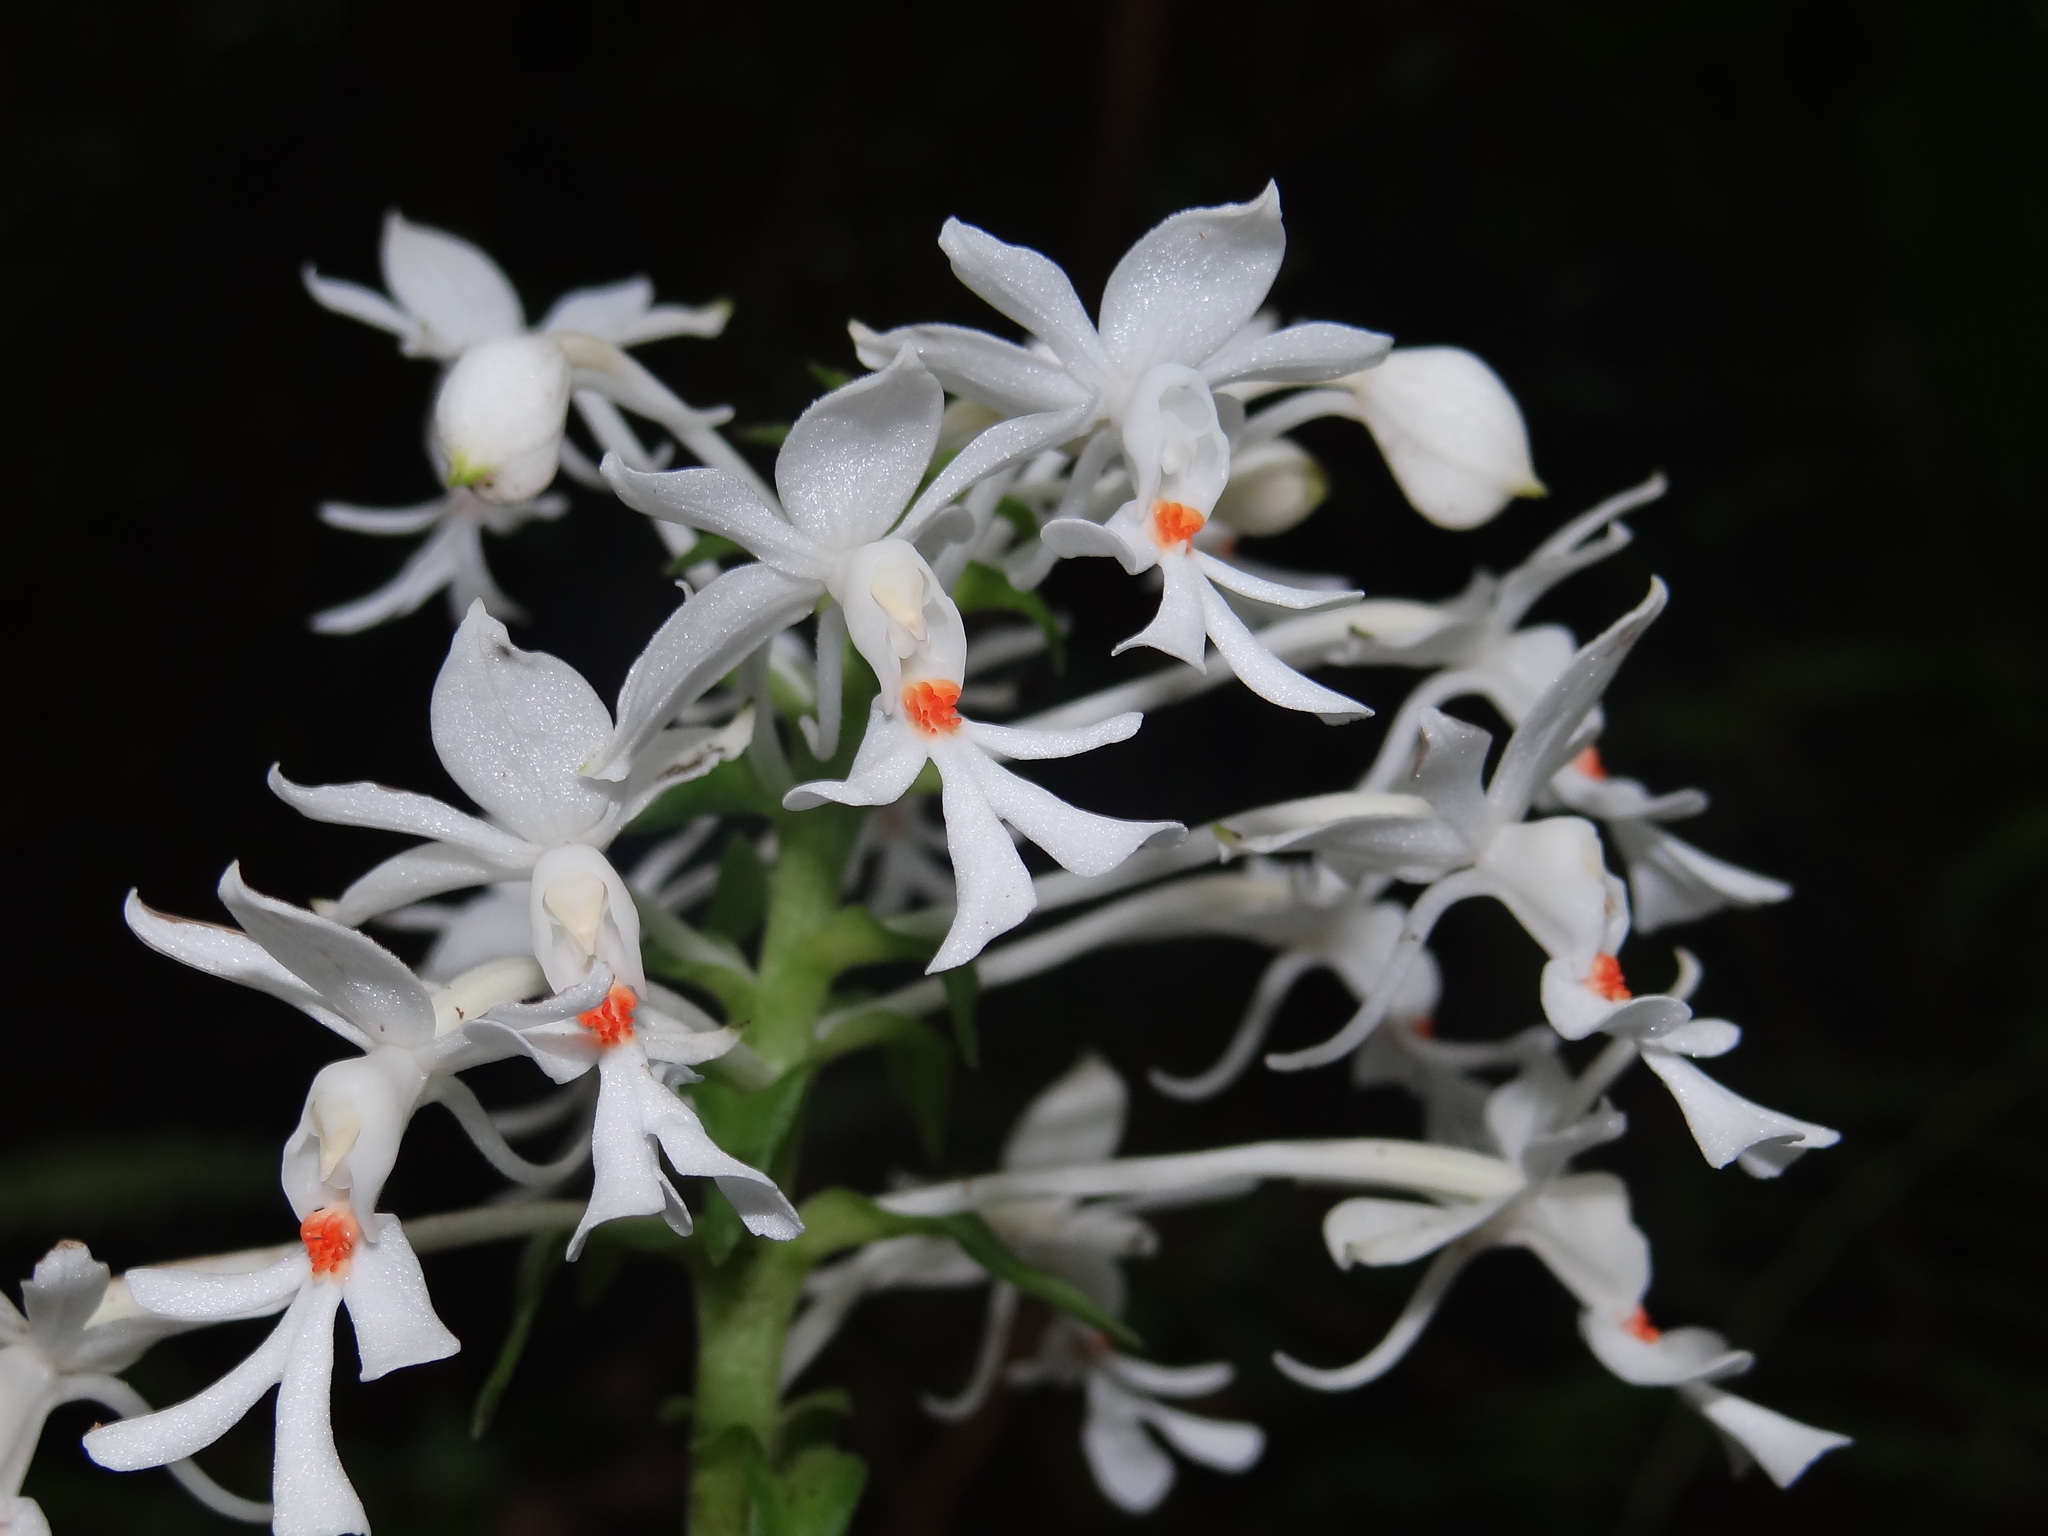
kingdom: Plantae
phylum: Tracheophyta
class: Liliopsida
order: Asparagales
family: Orchidaceae
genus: Calanthe
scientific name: Calanthe triplicata
